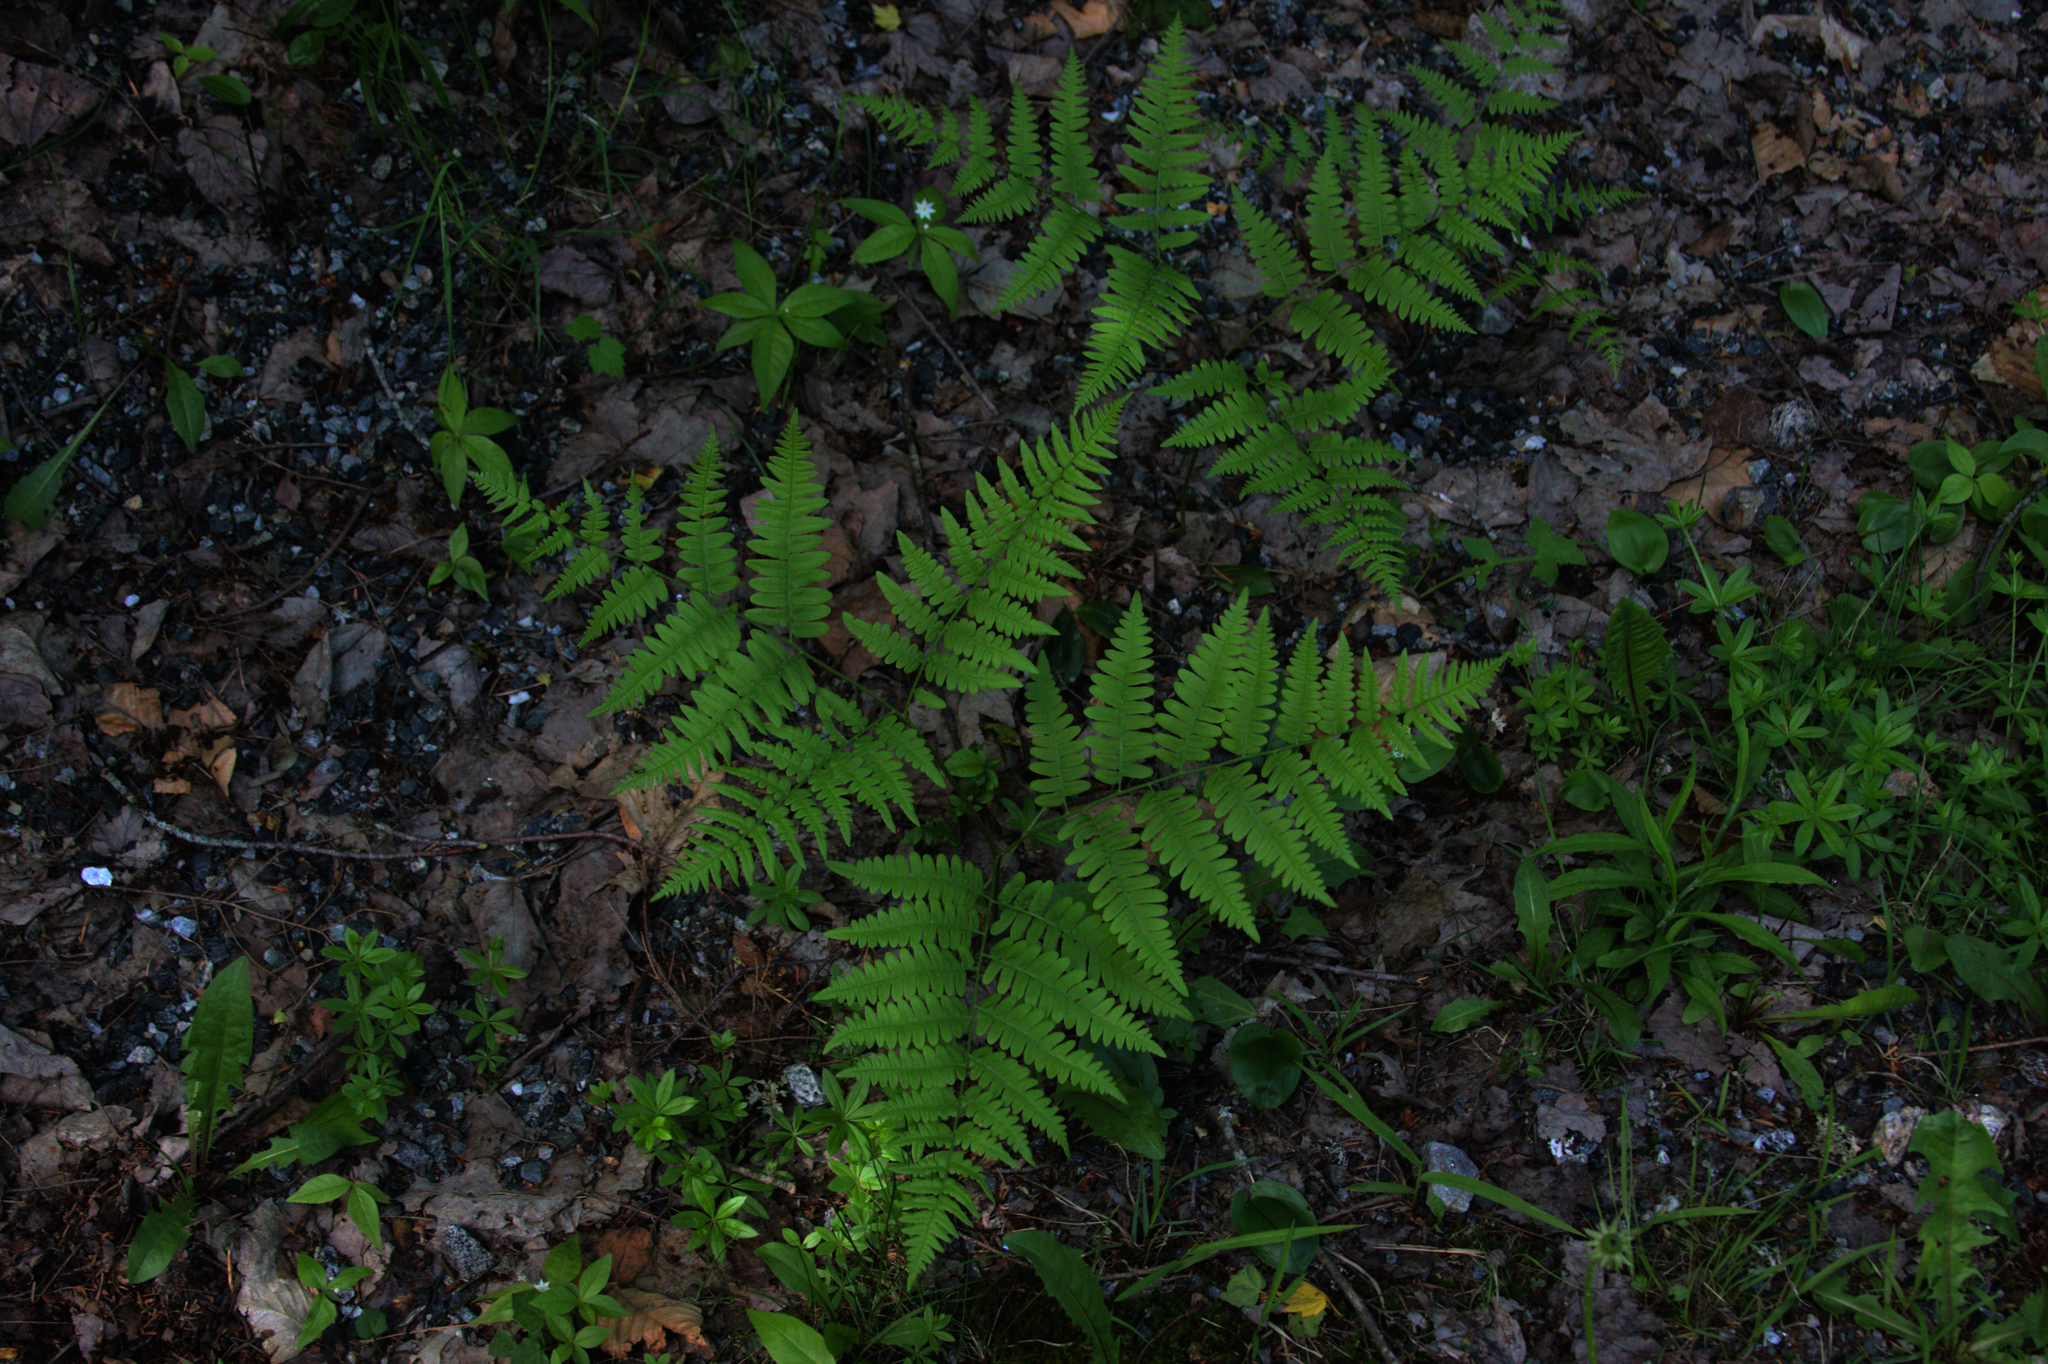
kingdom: Plantae
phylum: Tracheophyta
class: Polypodiopsida
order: Polypodiales
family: Dennstaedtiaceae
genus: Pteridium
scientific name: Pteridium aquilinum
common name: Bracken
